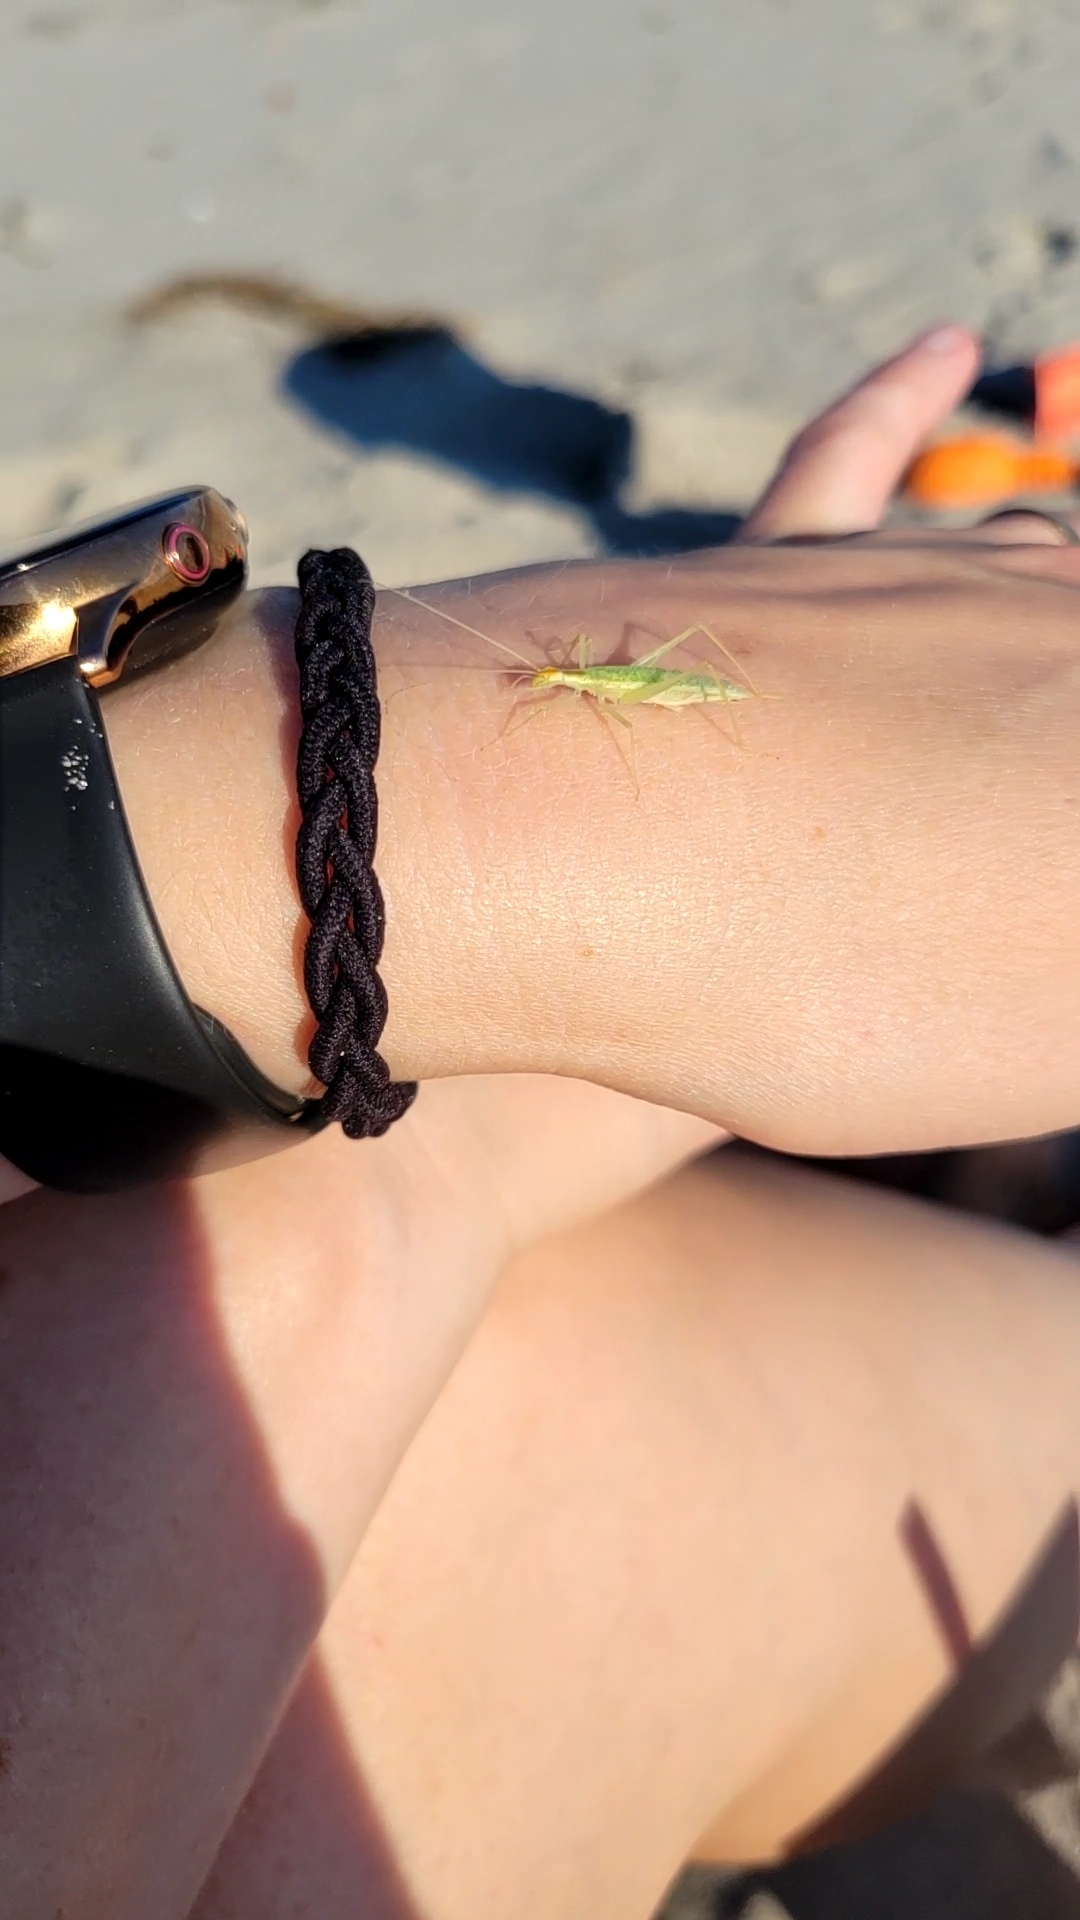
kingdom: Animalia
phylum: Arthropoda
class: Insecta
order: Orthoptera
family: Gryllidae
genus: Oecanthus
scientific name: Oecanthus niveus
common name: Narrow-winged tree cricket
